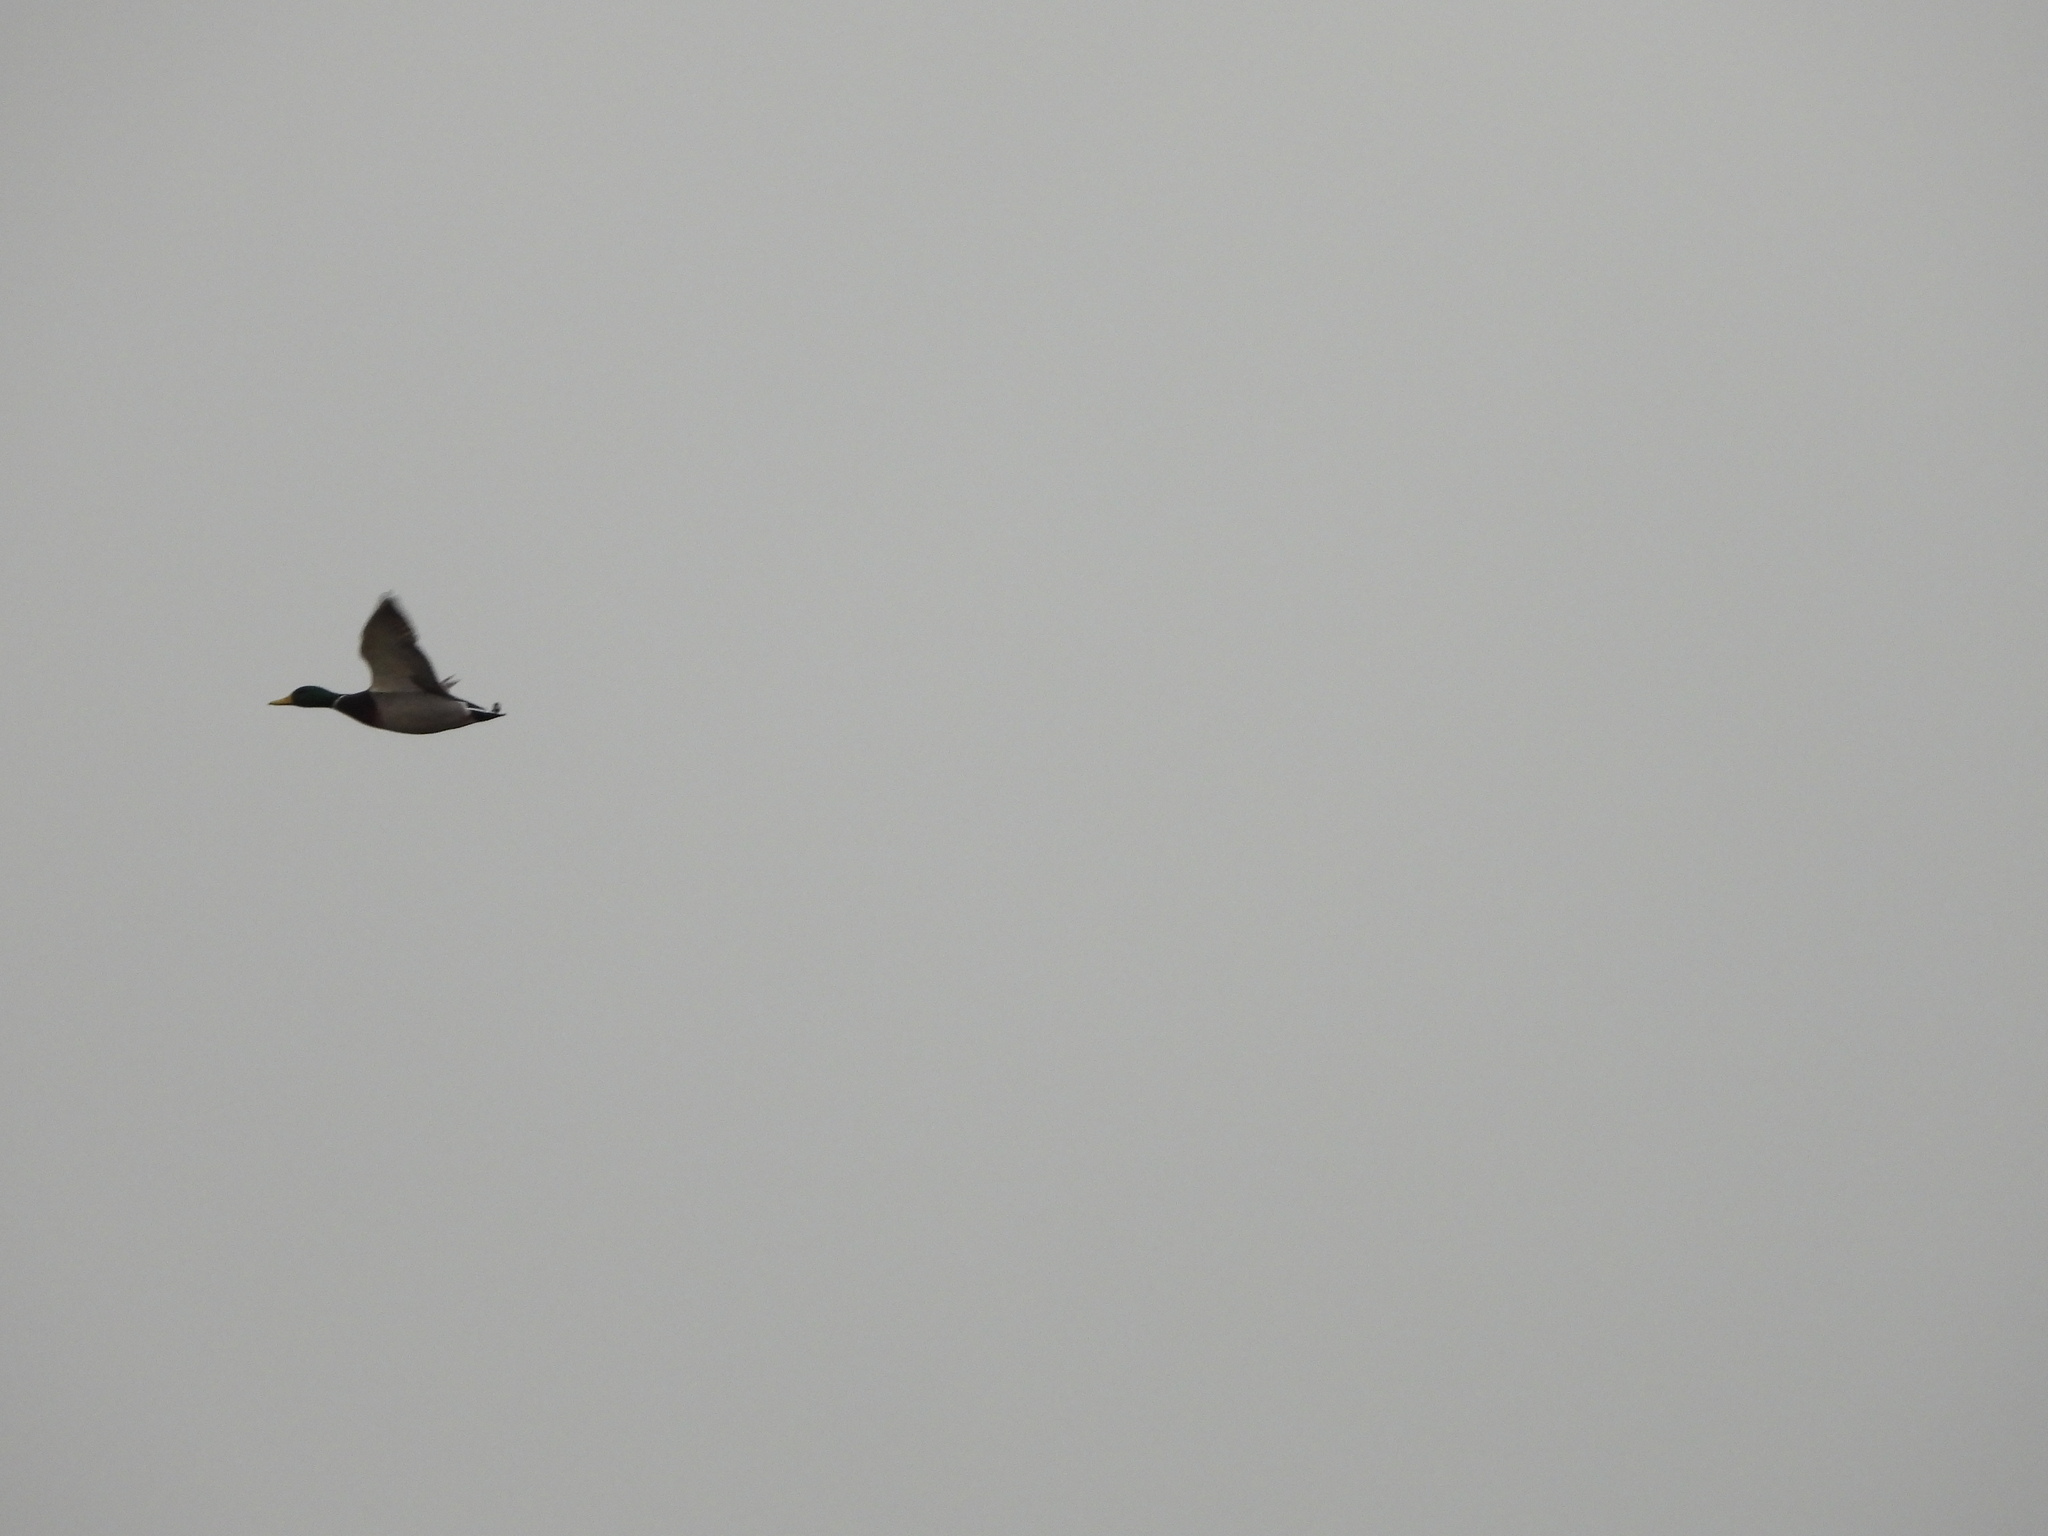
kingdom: Animalia
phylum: Chordata
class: Aves
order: Anseriformes
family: Anatidae
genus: Anas
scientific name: Anas platyrhynchos
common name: Mallard
